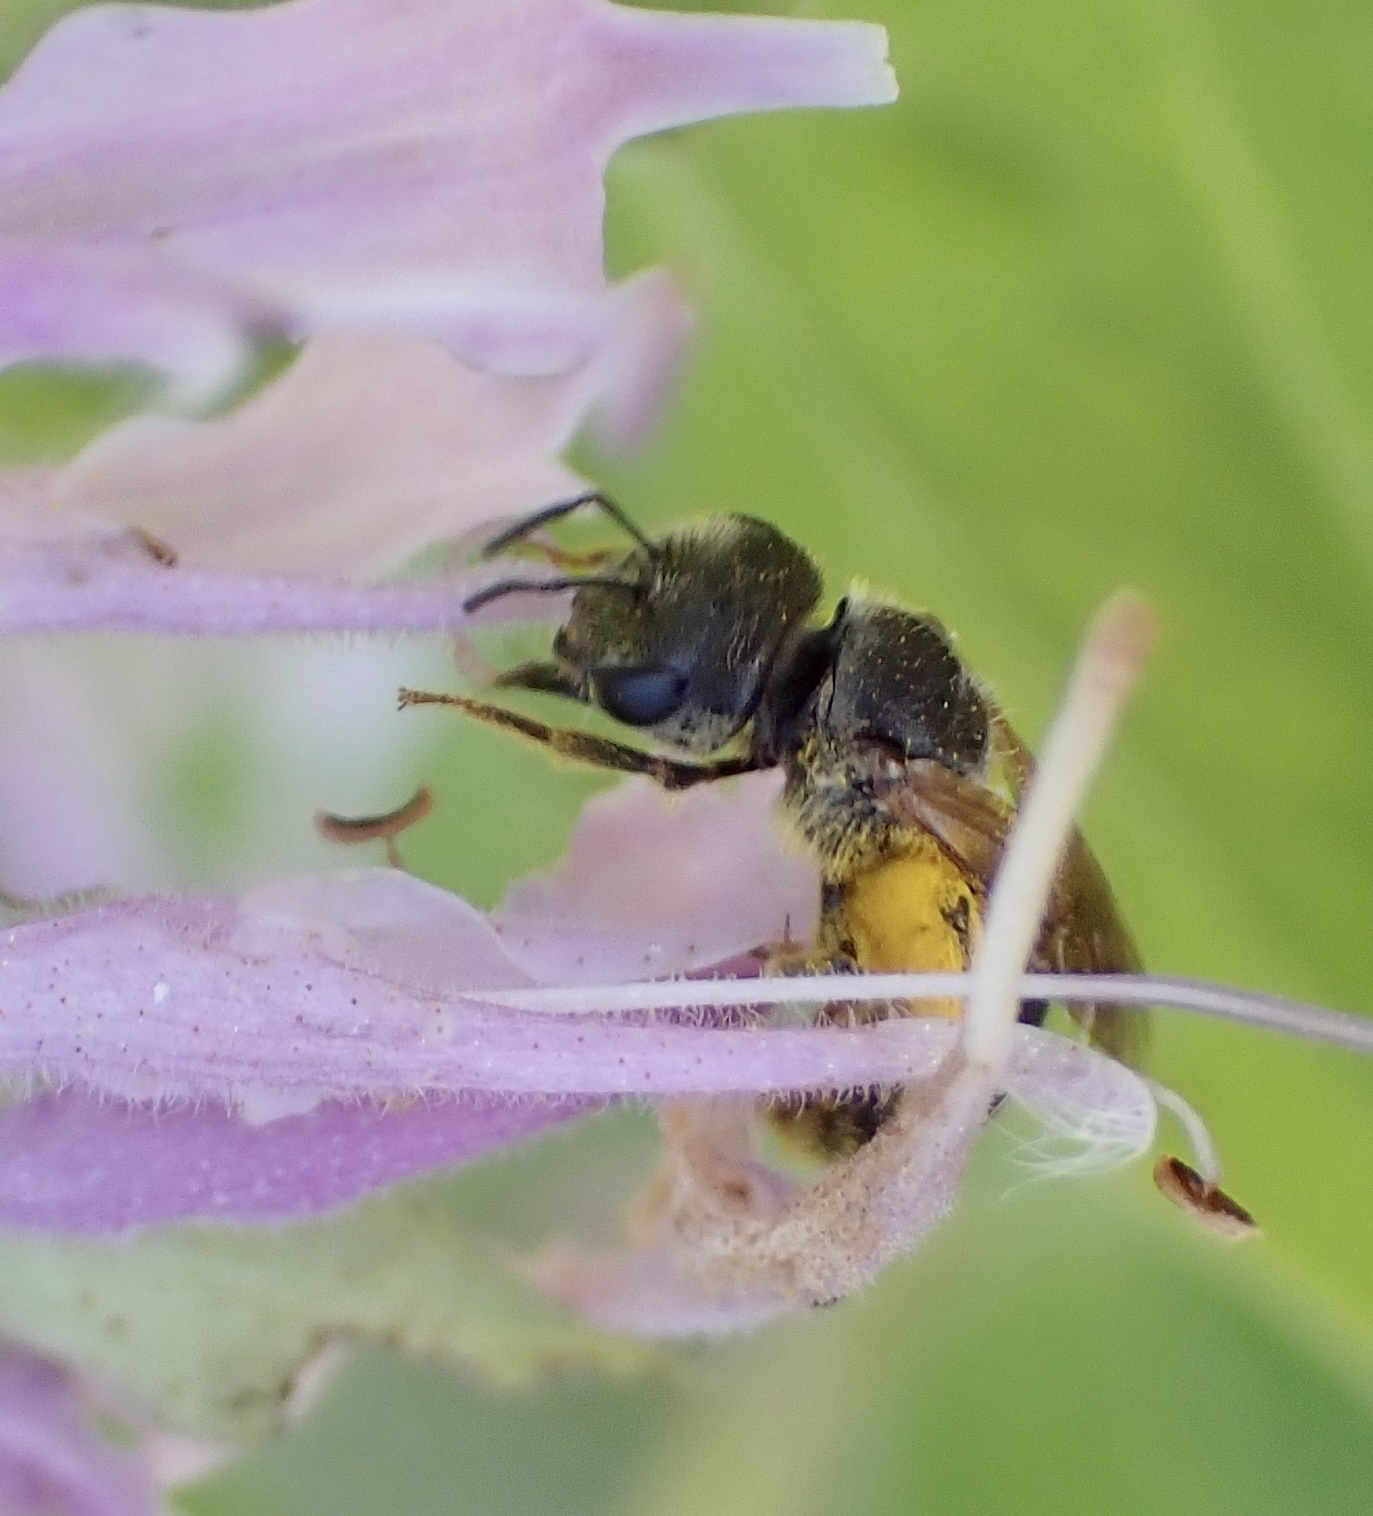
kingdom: Animalia
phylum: Arthropoda
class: Insecta
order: Hymenoptera
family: Halictidae
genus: Halictus
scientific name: Halictus ligatus
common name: Ligated furrow bee
